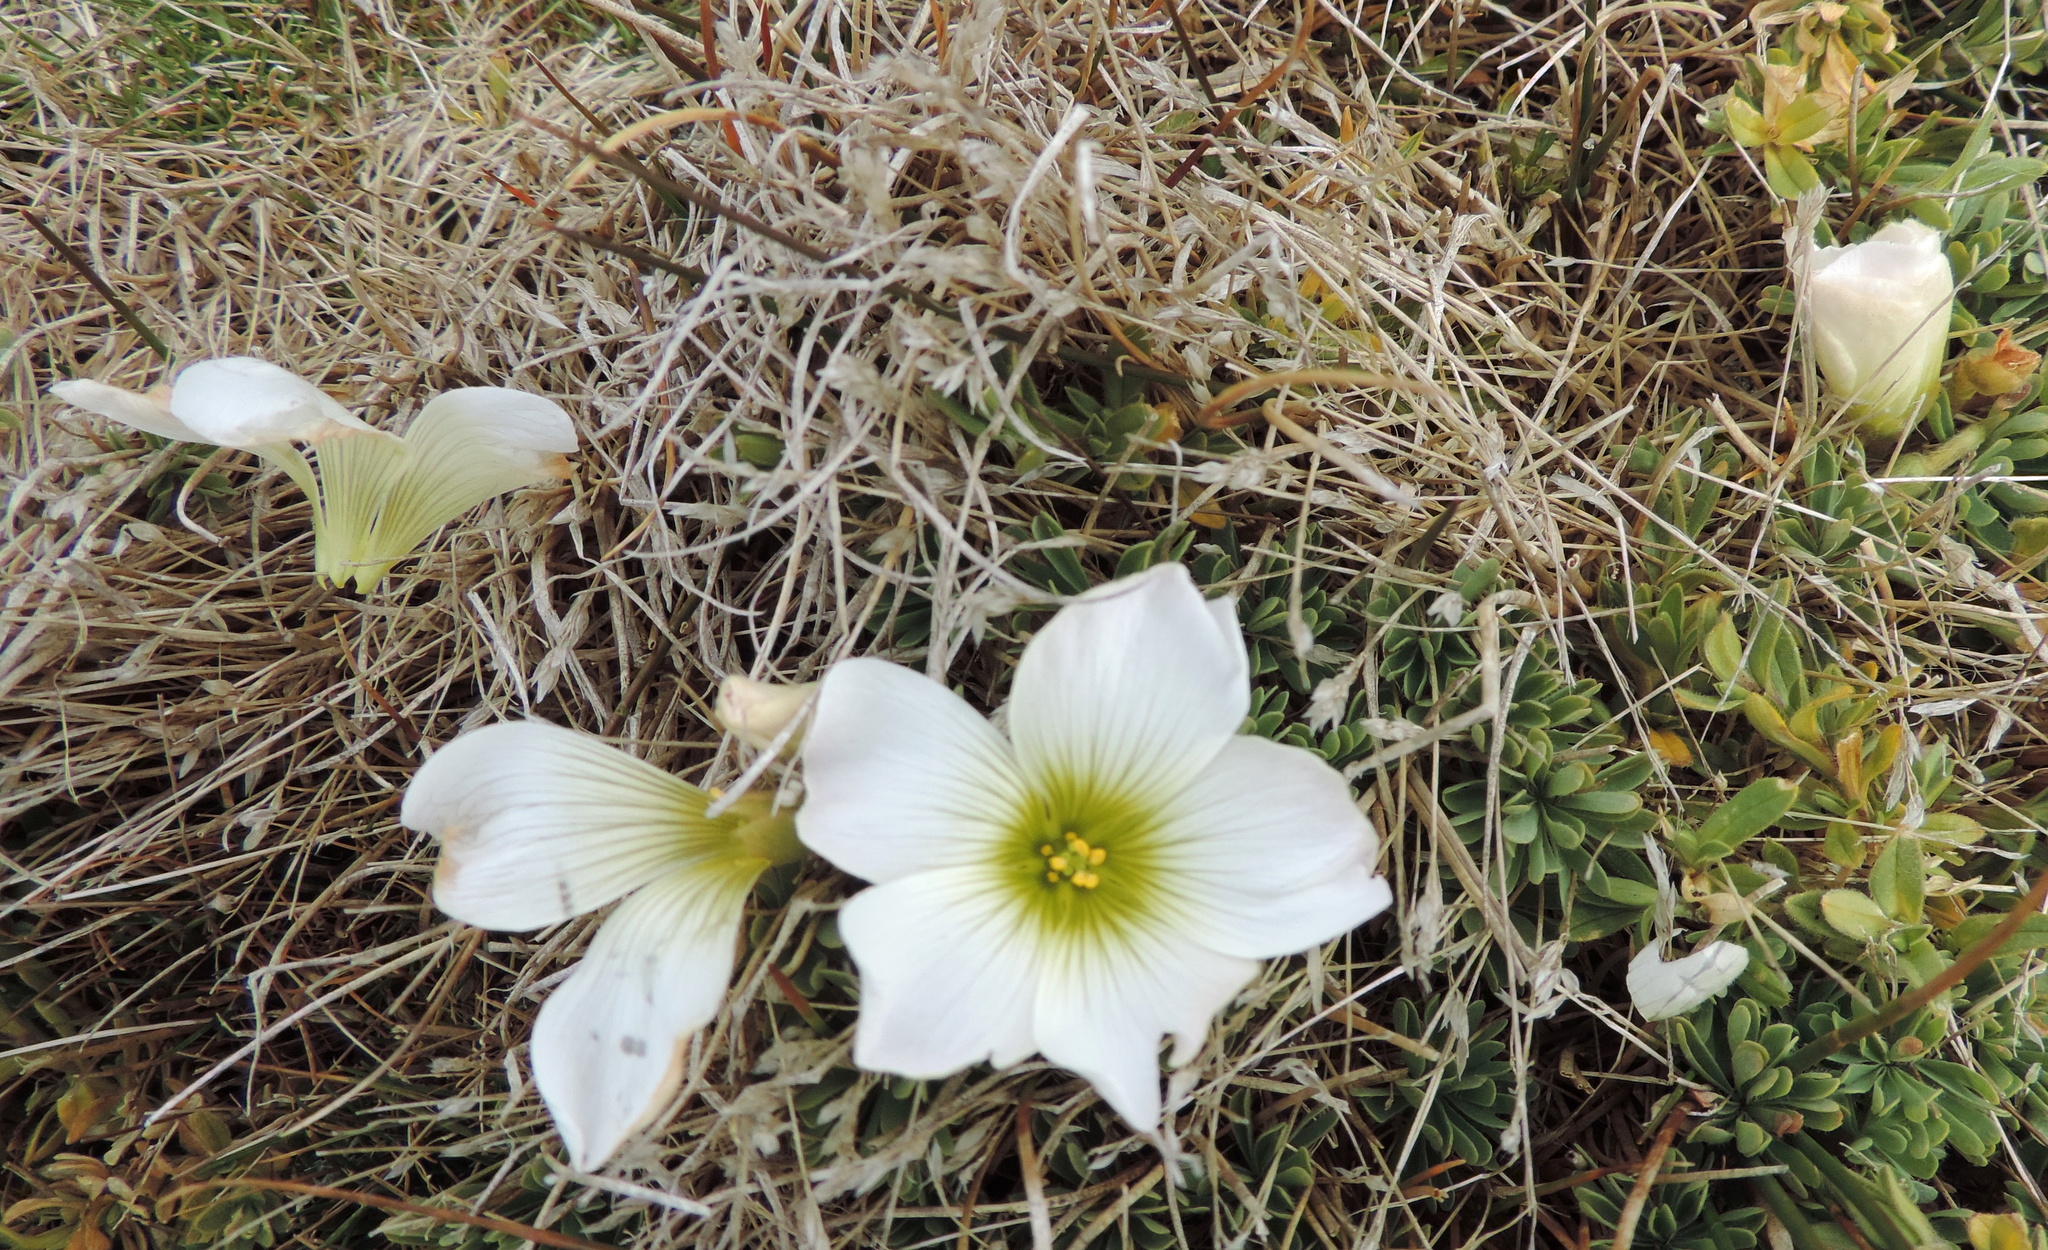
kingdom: Plantae
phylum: Tracheophyta
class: Magnoliopsida
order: Oxalidales
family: Oxalidaceae
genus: Oxalis
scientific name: Oxalis enneaphylla
